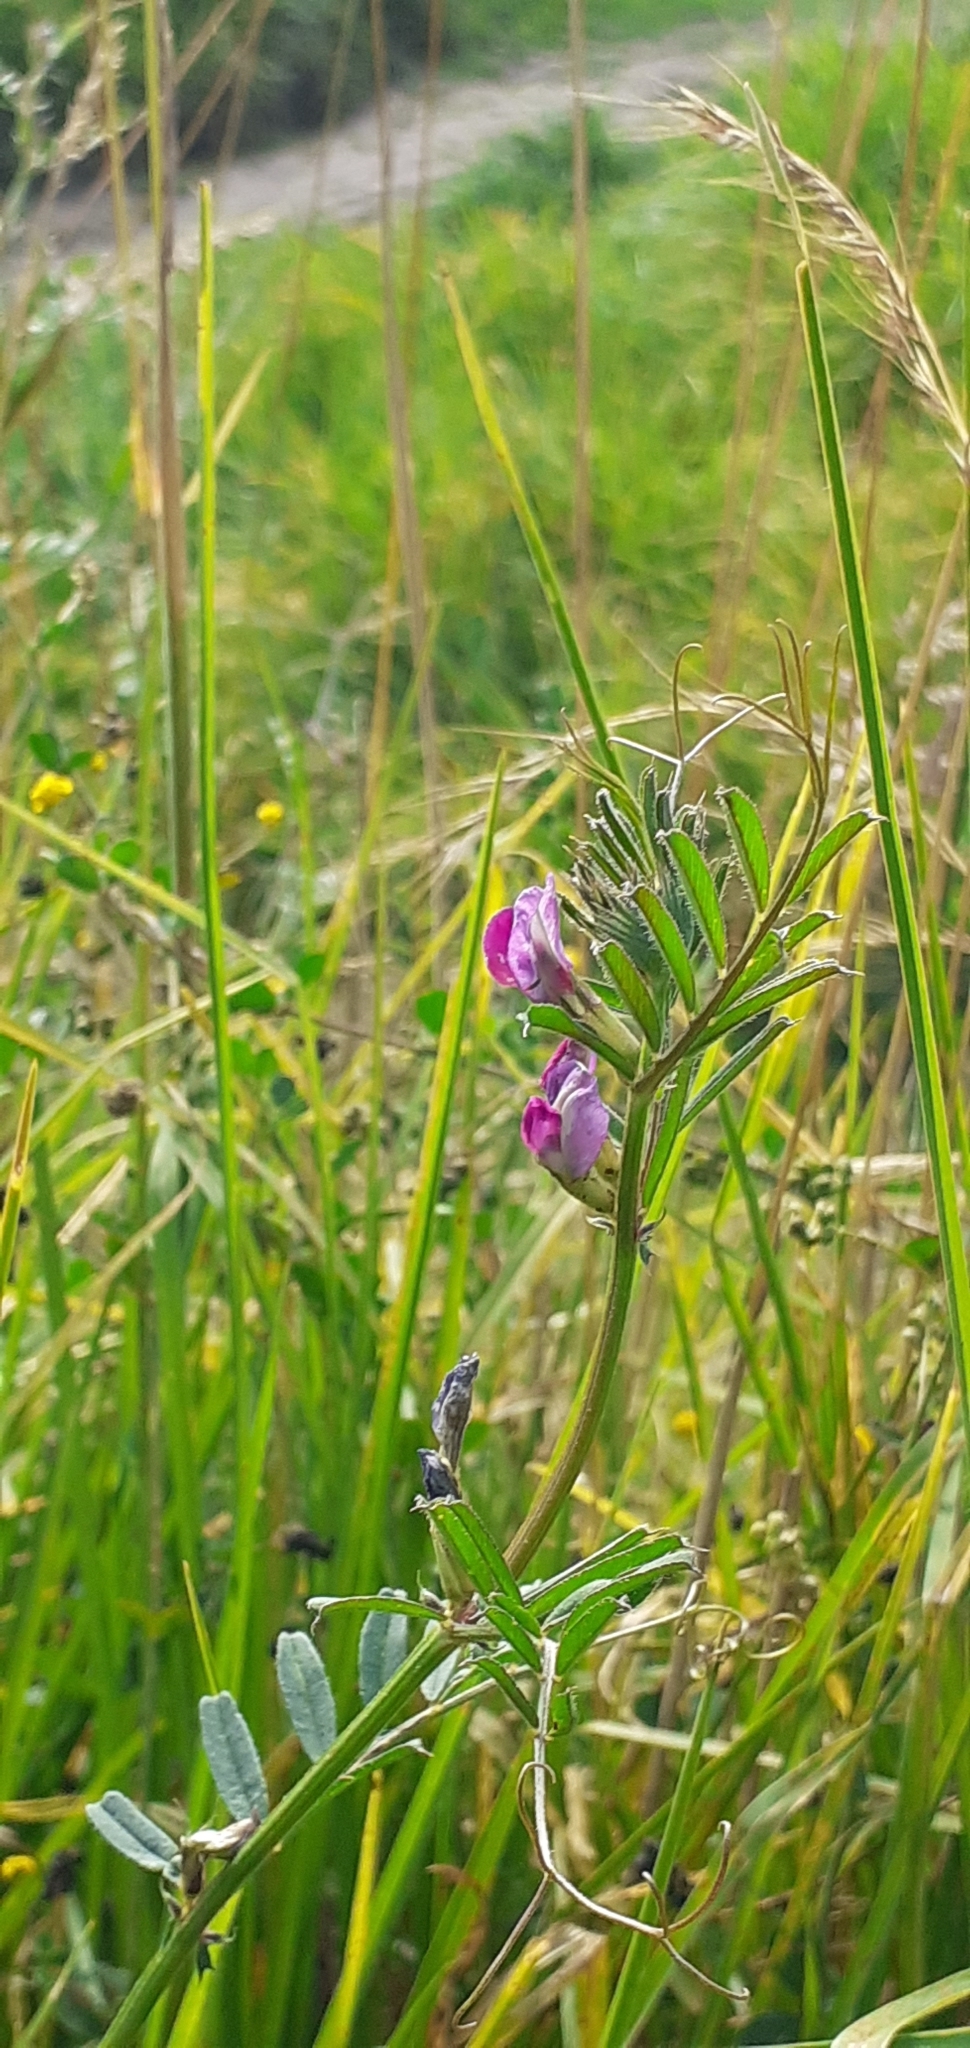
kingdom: Plantae
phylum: Tracheophyta
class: Magnoliopsida
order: Fabales
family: Fabaceae
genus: Vicia
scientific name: Vicia sativa
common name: Garden vetch
